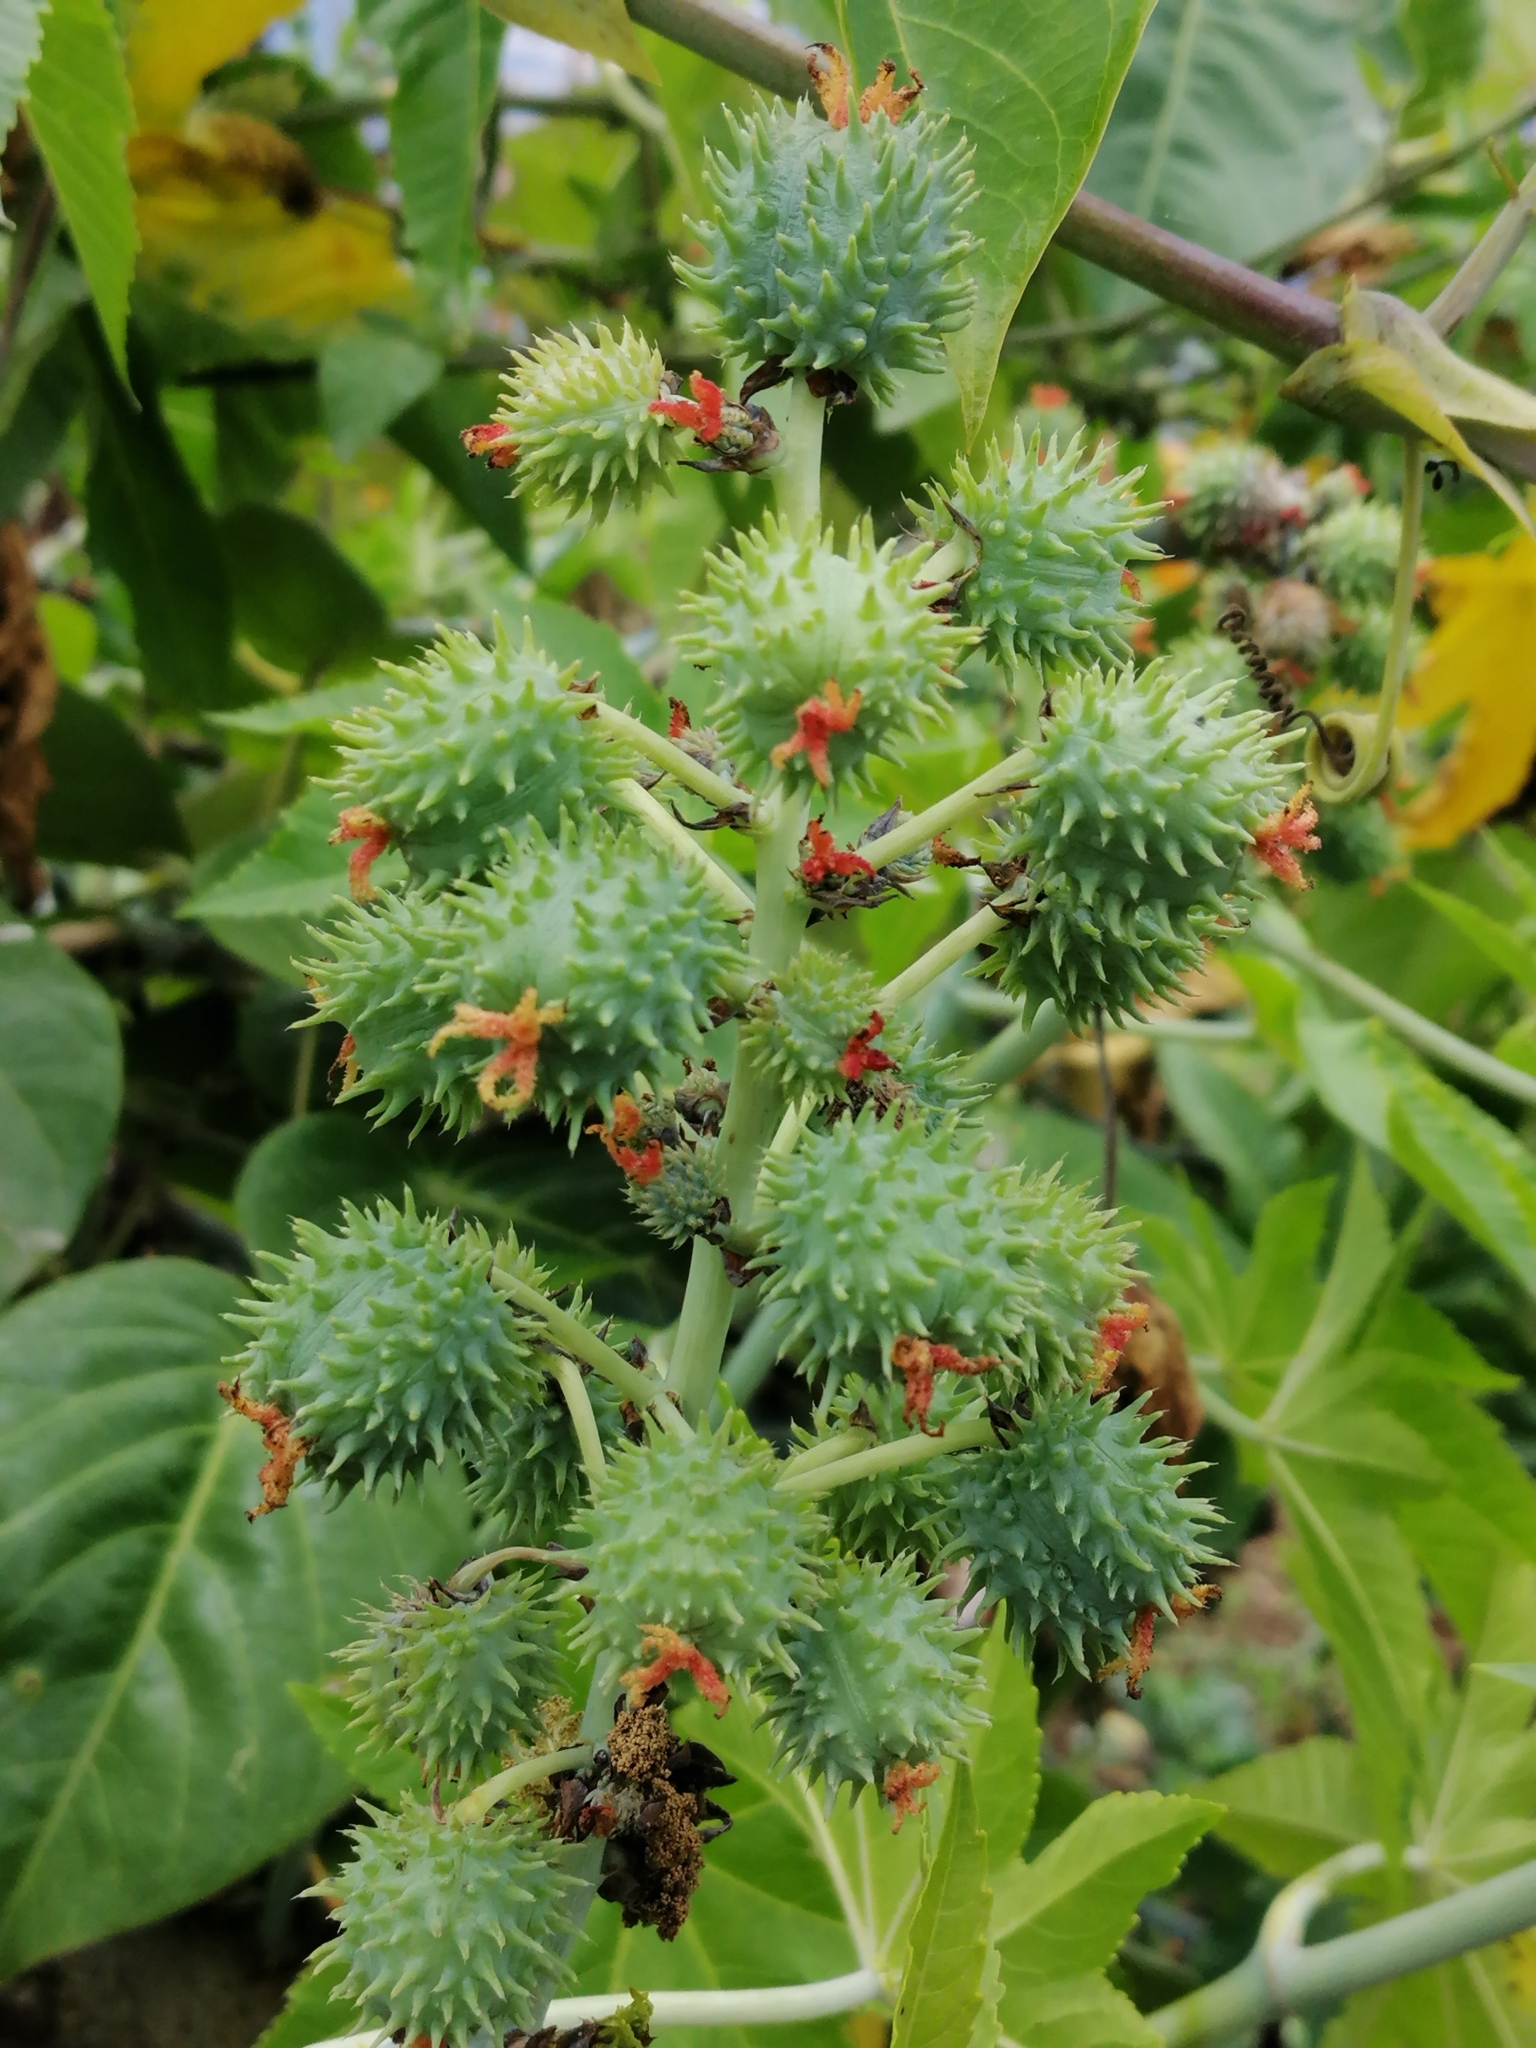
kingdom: Plantae
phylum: Tracheophyta
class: Magnoliopsida
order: Malpighiales
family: Euphorbiaceae
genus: Ricinus
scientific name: Ricinus communis
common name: Castor-oil-plant
